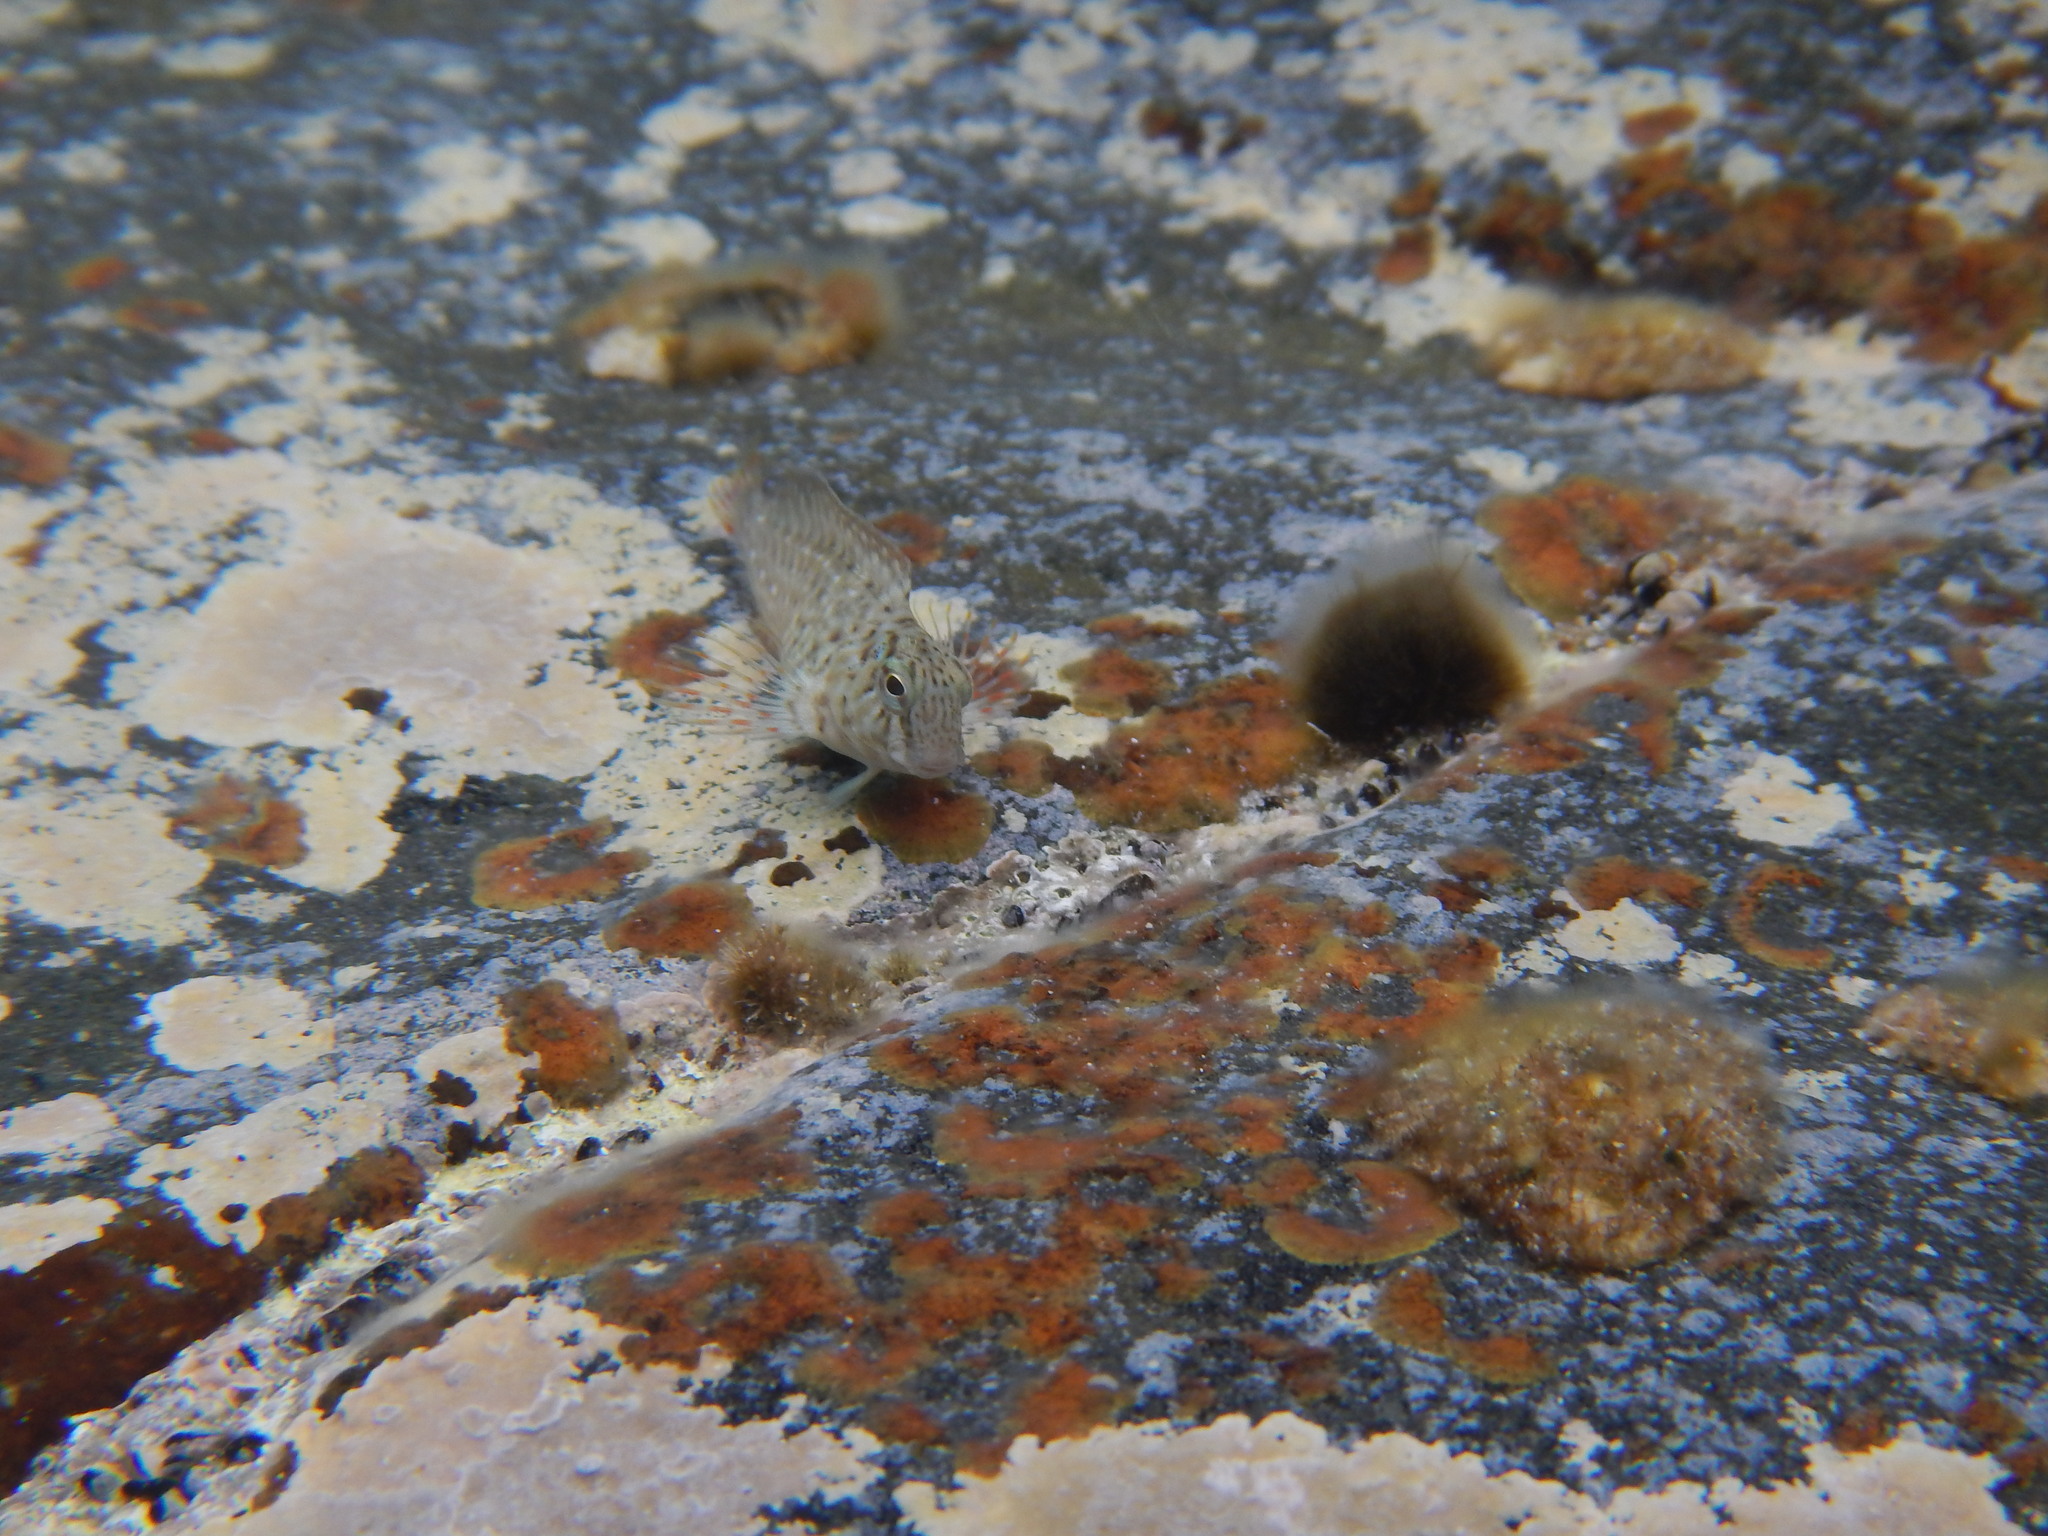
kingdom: Animalia
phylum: Chordata
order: Perciformes
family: Blenniidae
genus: Parablennius
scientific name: Parablennius sanguinolentus
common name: Black sea blenny
